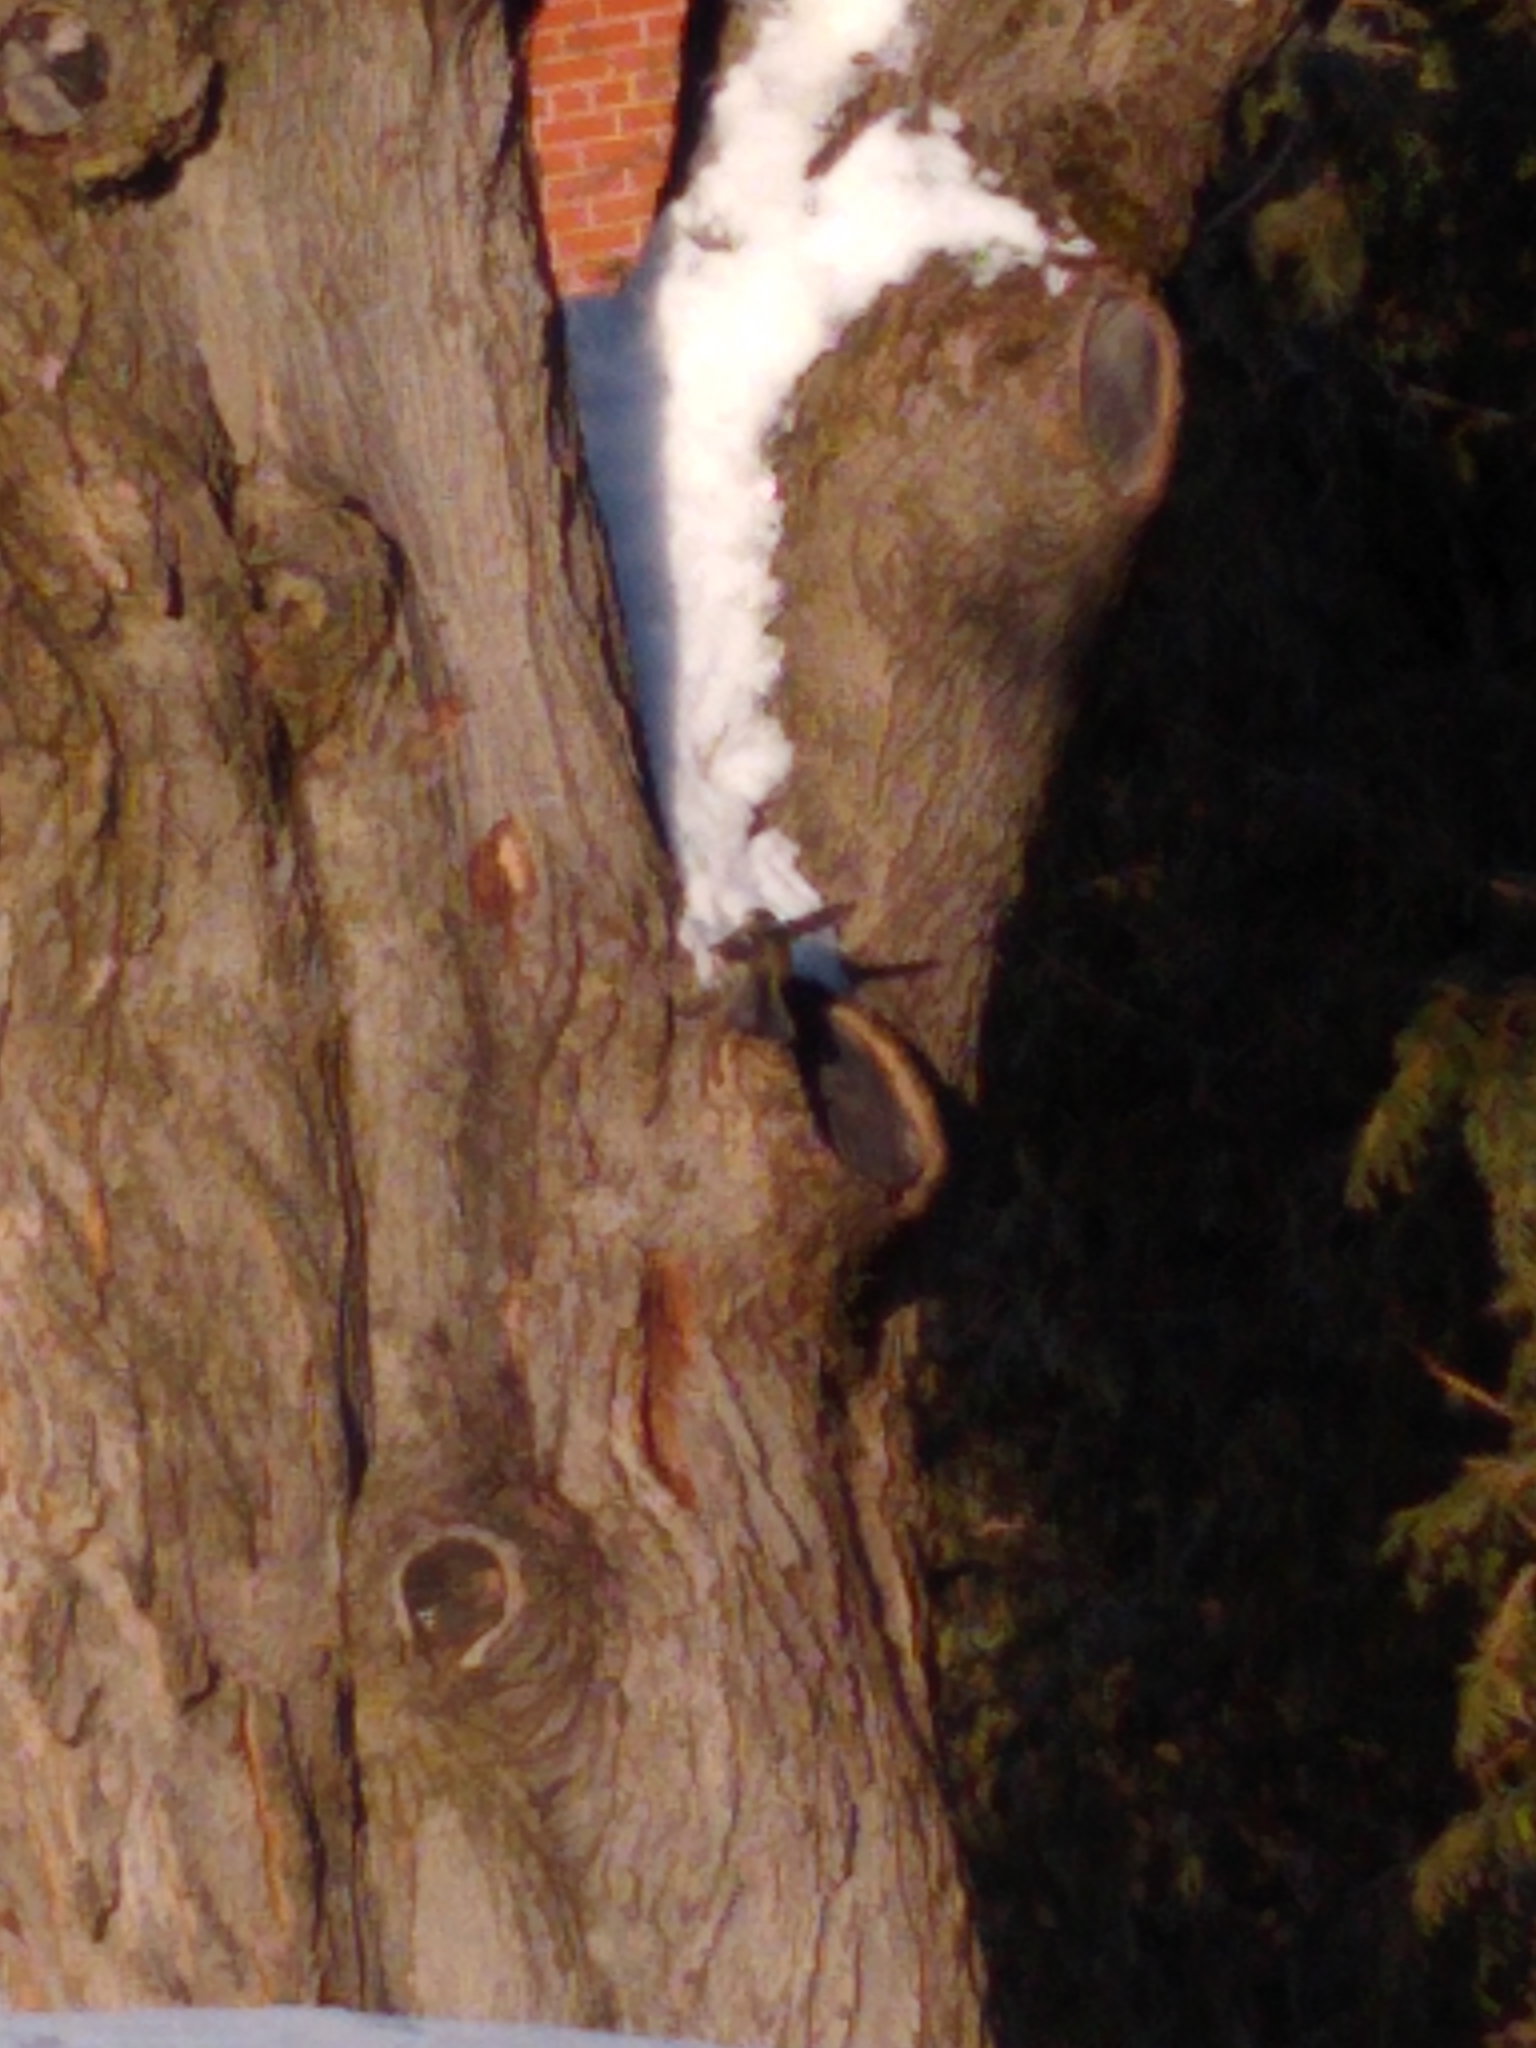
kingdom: Animalia
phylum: Chordata
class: Aves
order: Passeriformes
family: Paridae
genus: Poecile
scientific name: Poecile atricapillus
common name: Black-capped chickadee
